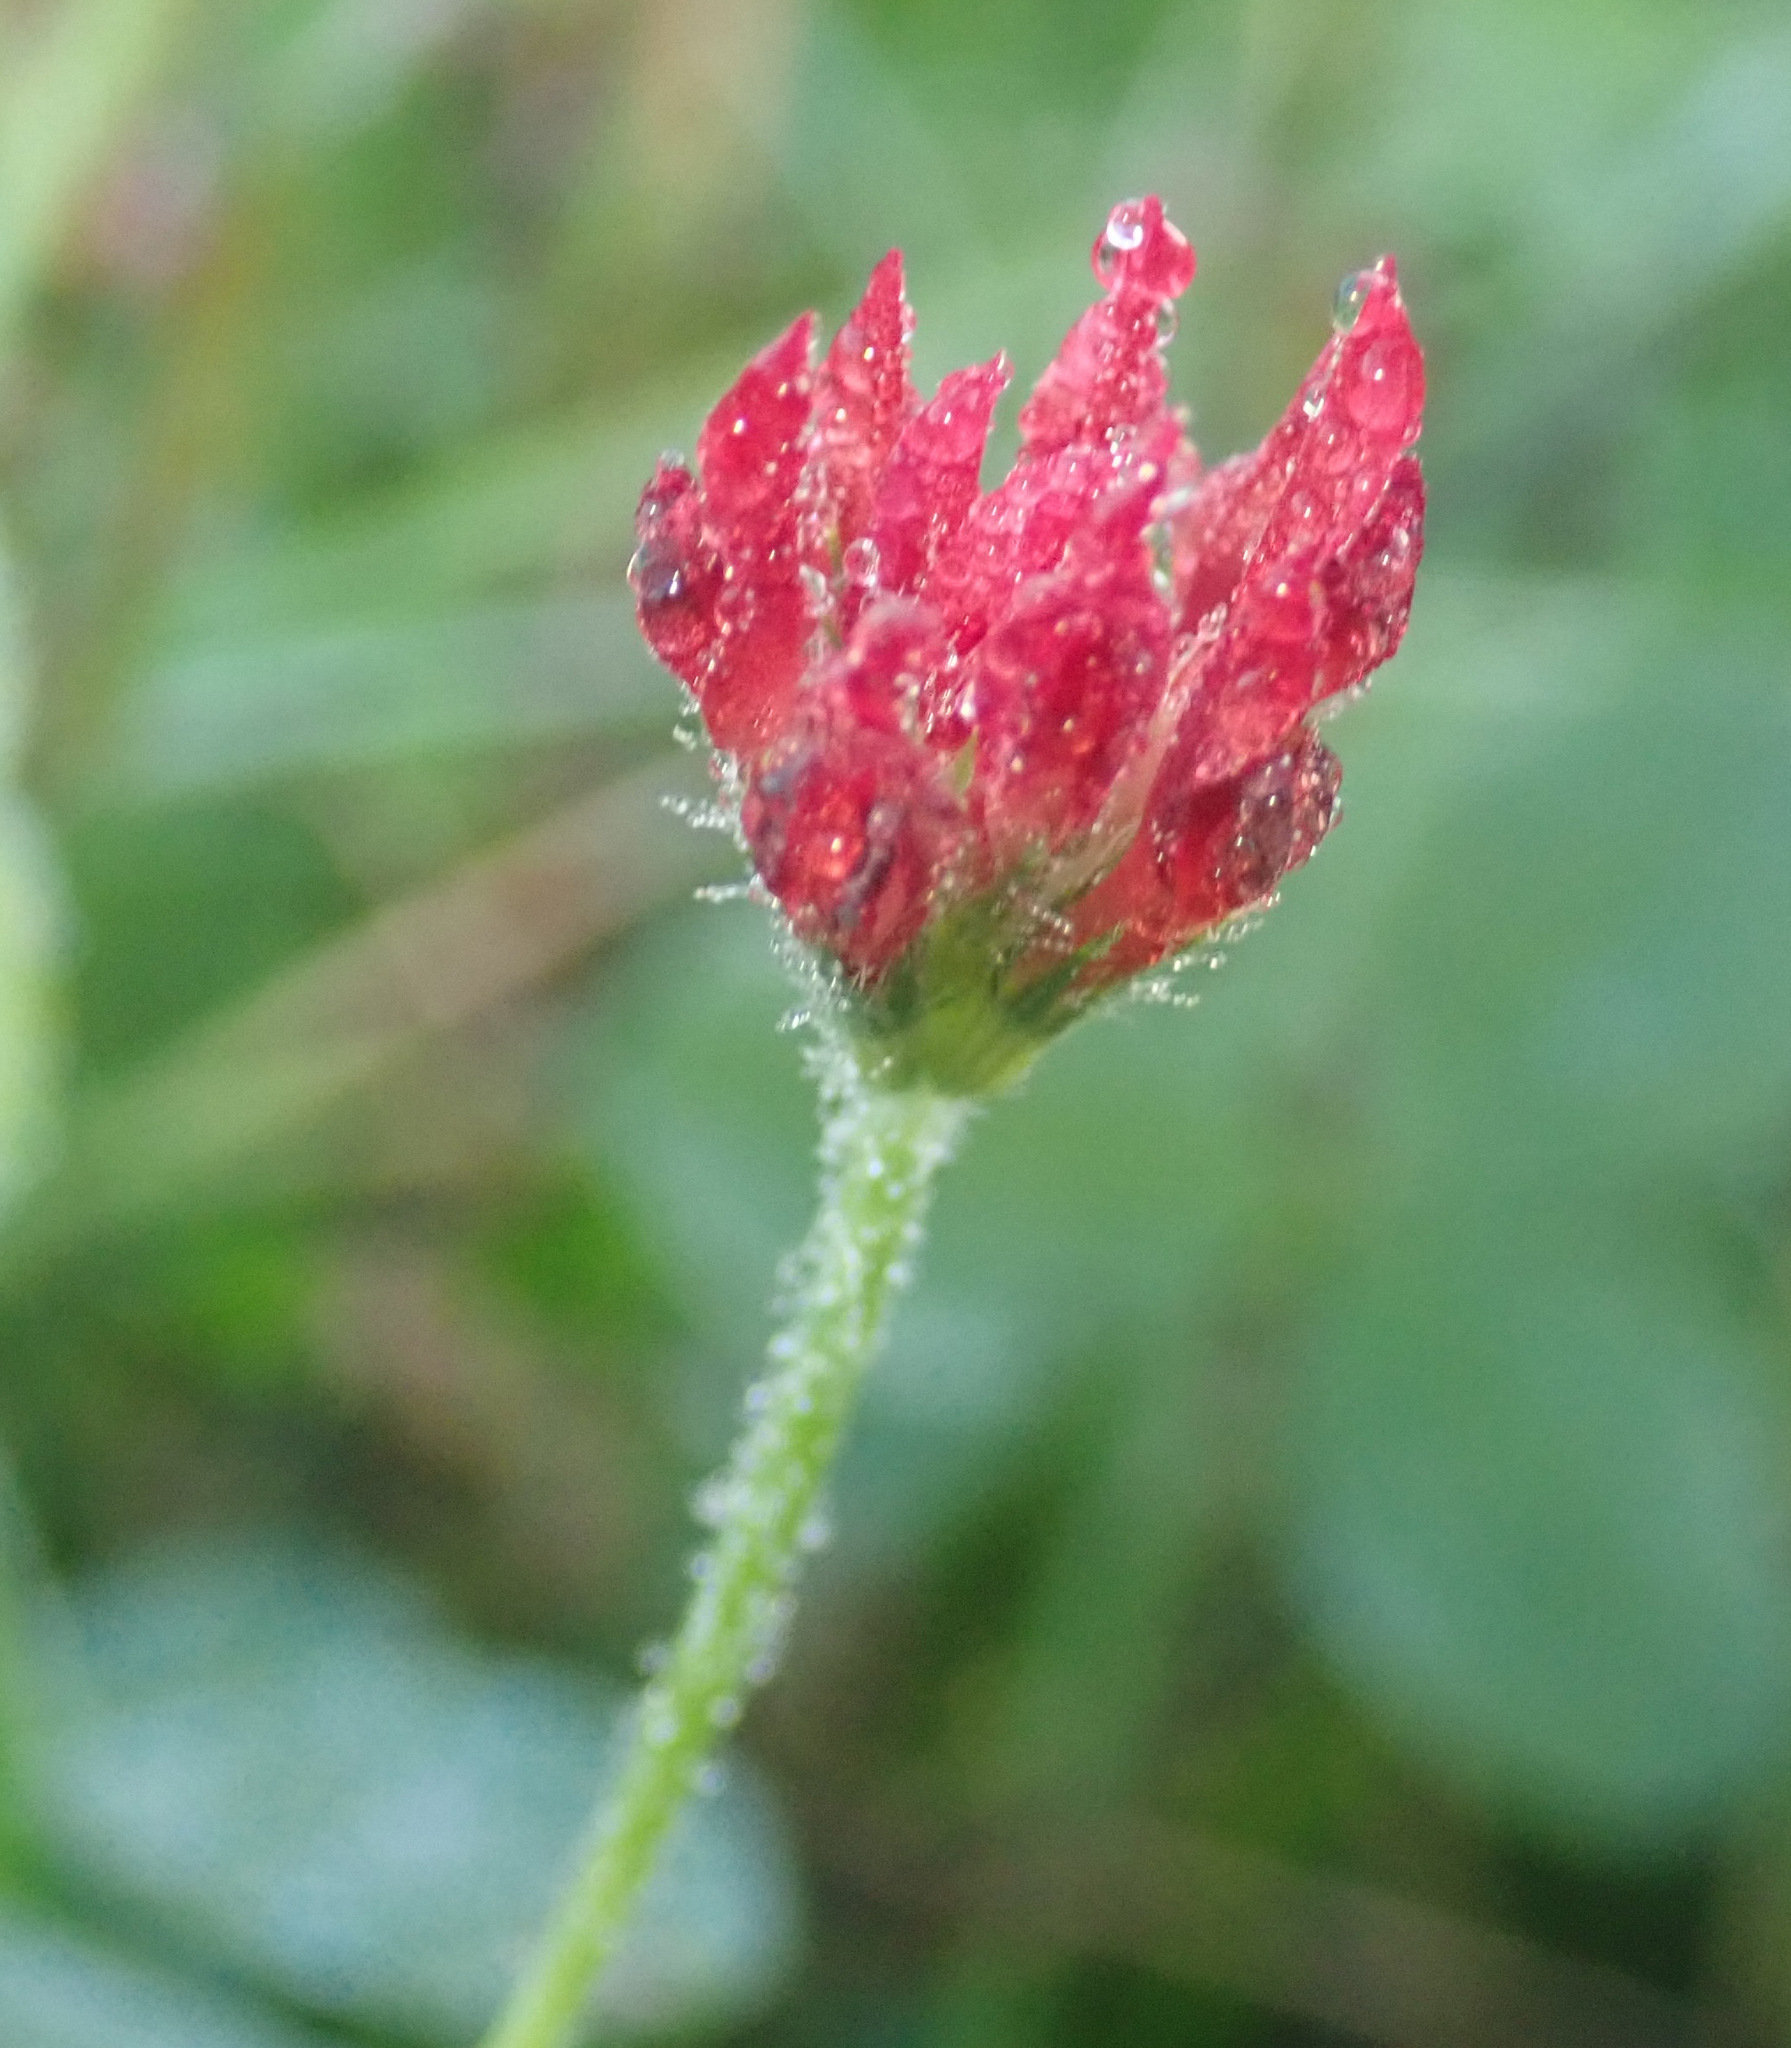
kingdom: Plantae
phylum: Tracheophyta
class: Magnoliopsida
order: Fabales
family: Fabaceae
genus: Trifolium
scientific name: Trifolium incarnatum
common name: Crimson clover
